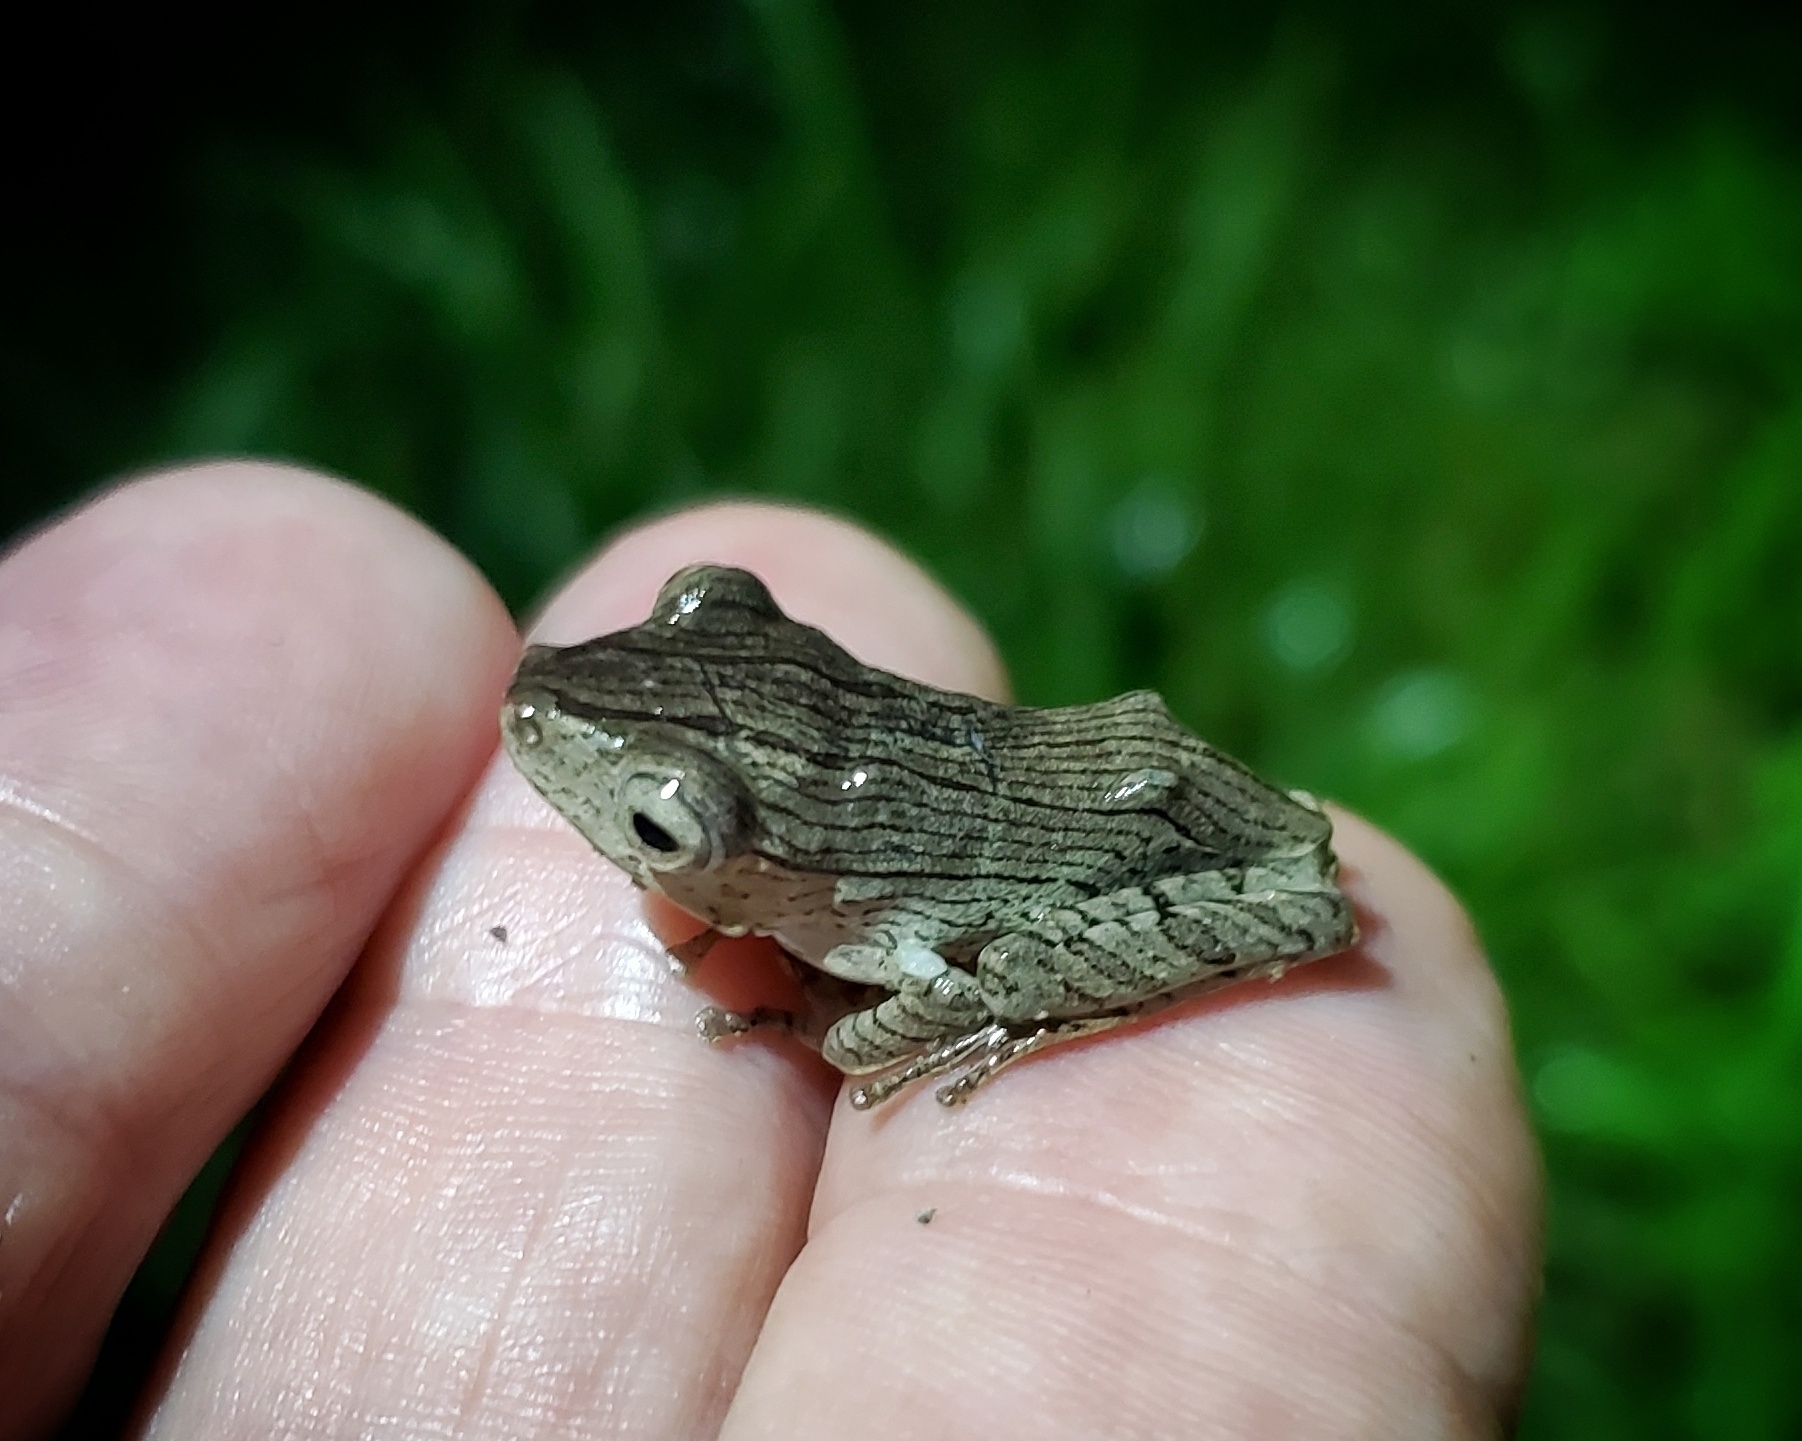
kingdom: Animalia
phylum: Chordata
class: Amphibia
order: Anura
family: Rhacophoridae
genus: Polypedates
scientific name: Polypedates otilophus
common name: File-eared tree frog
